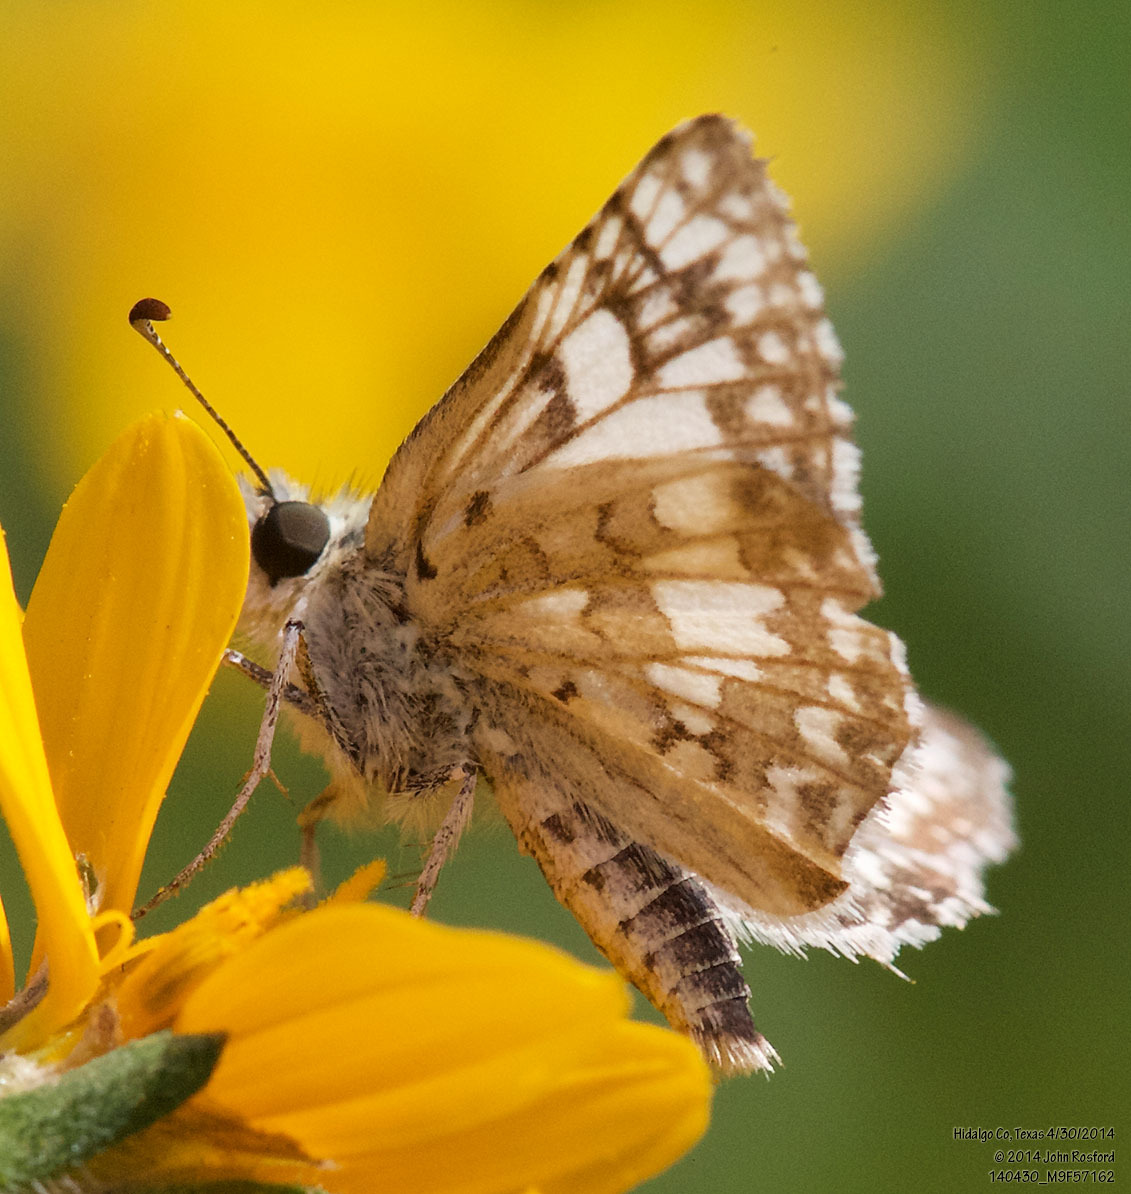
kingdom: Animalia
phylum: Arthropoda
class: Insecta
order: Lepidoptera
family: Hesperiidae
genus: Burnsius
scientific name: Burnsius
